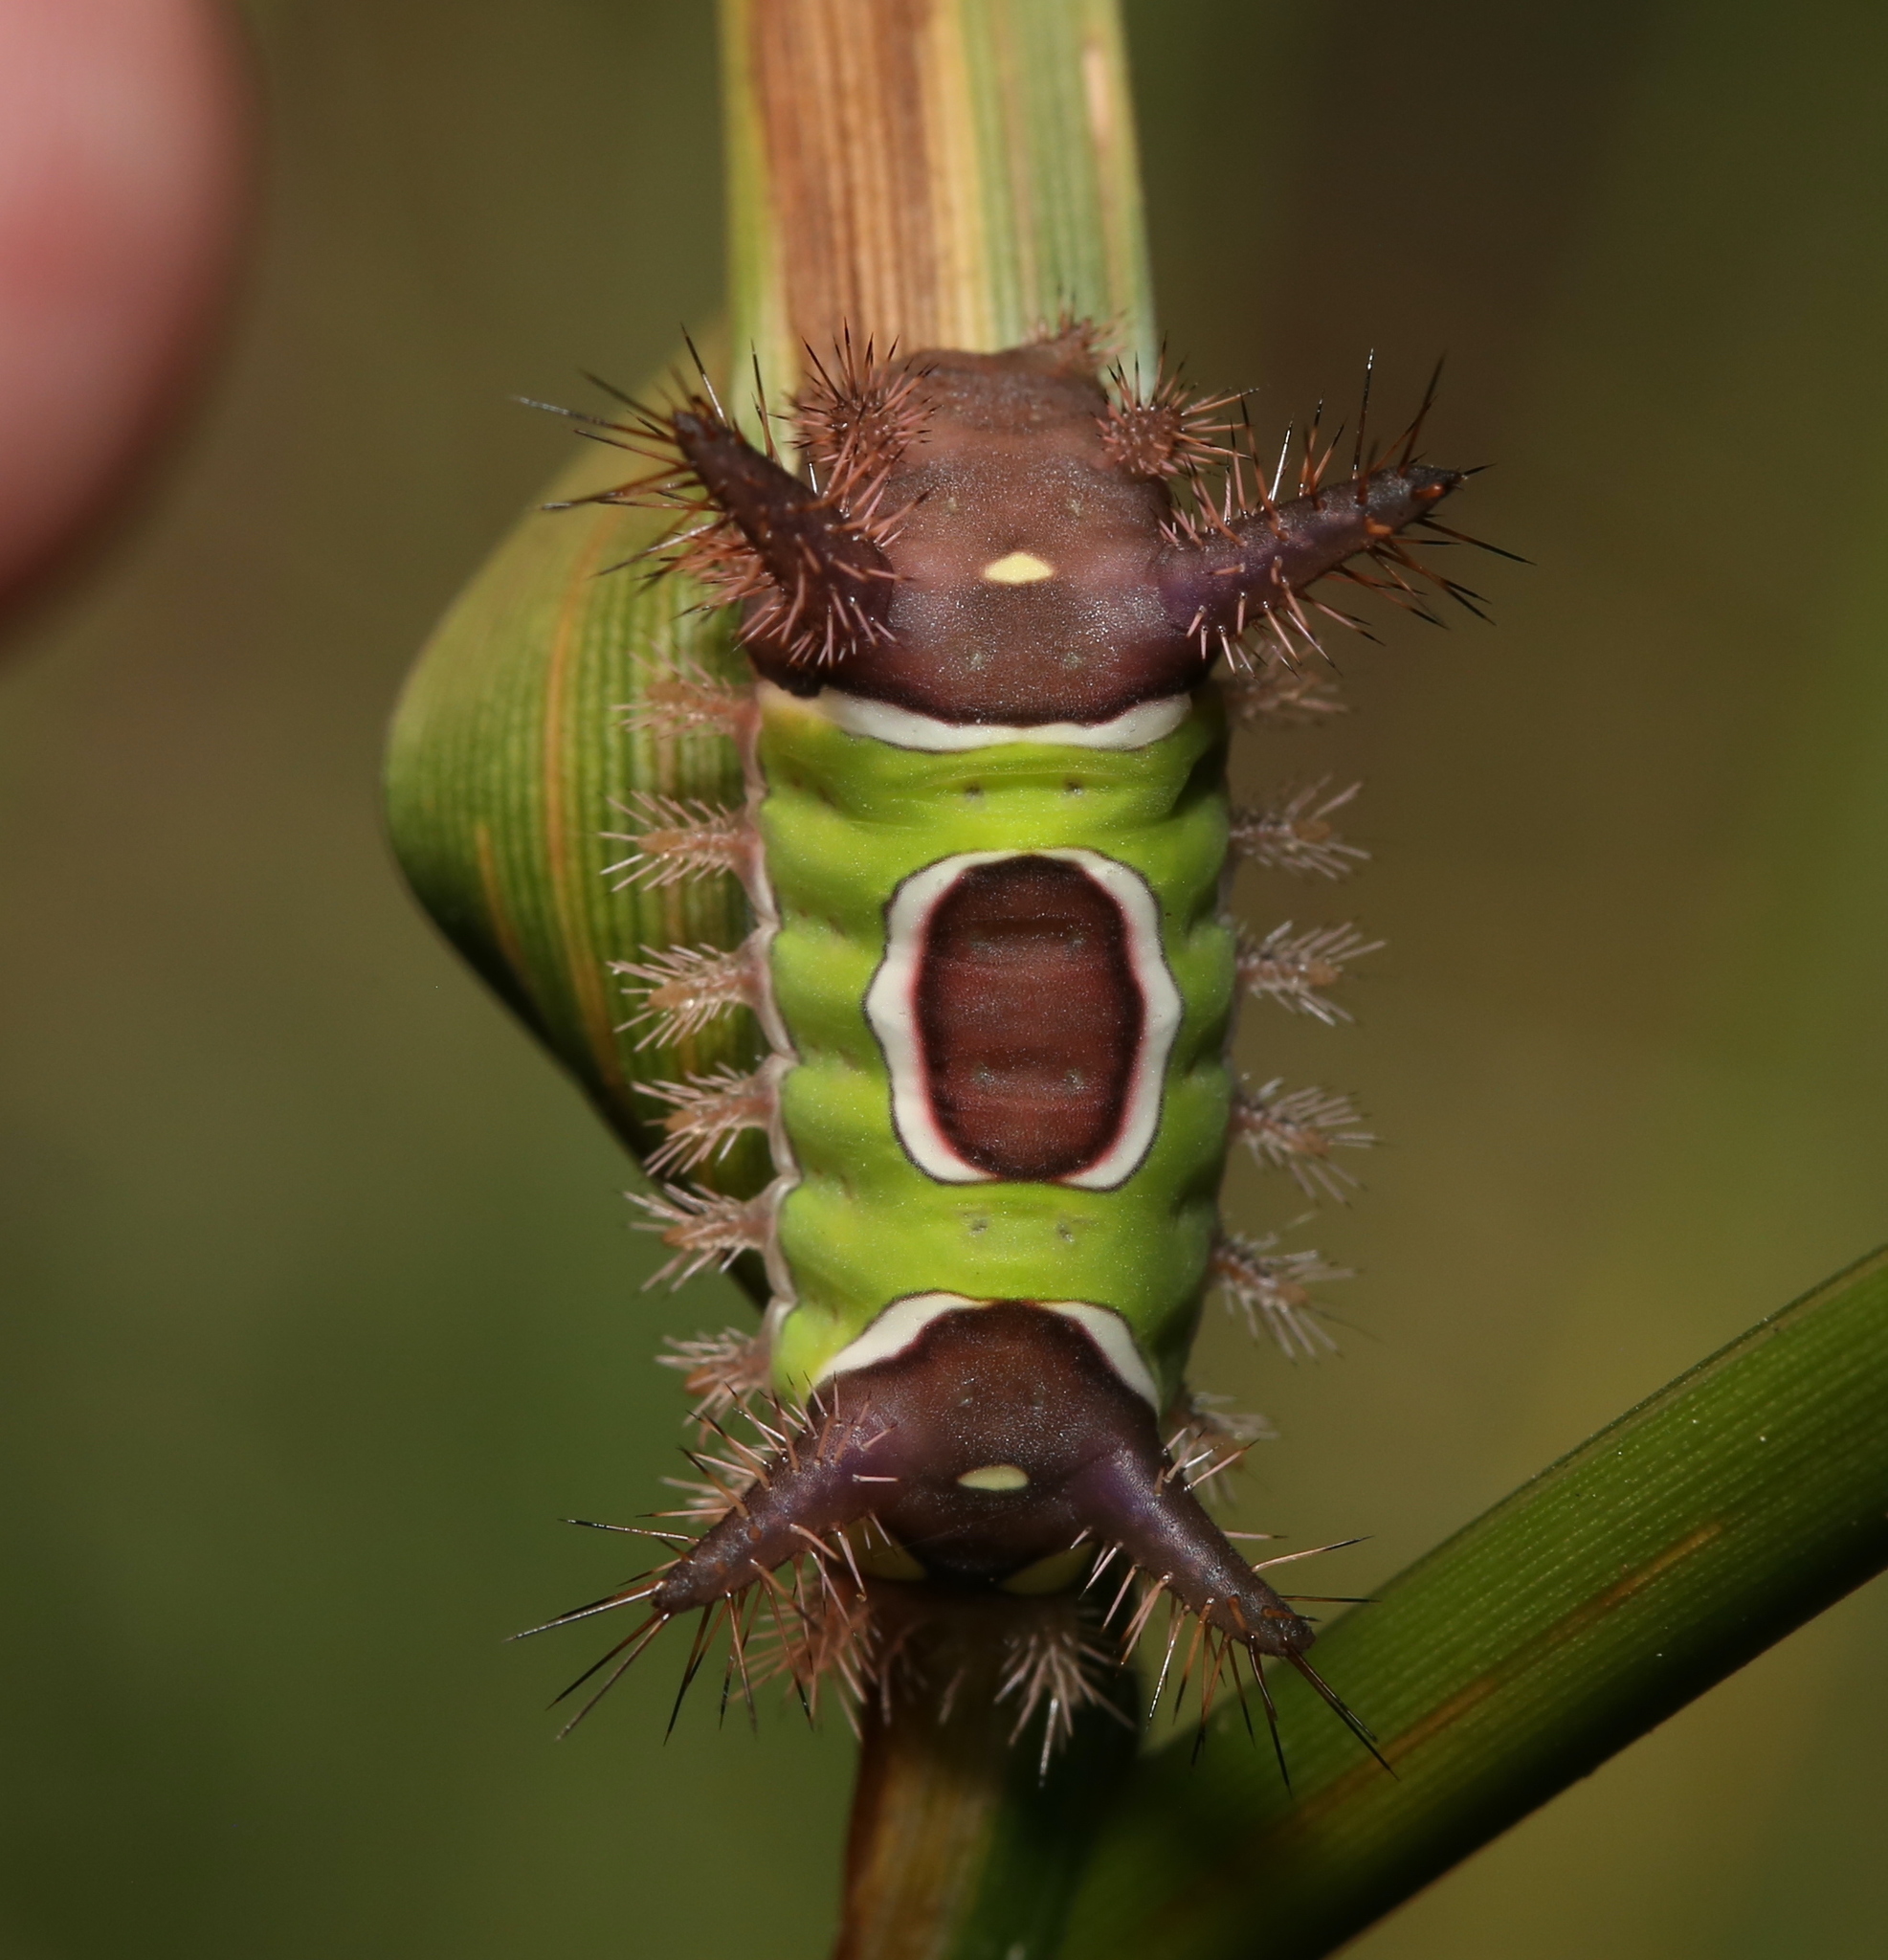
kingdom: Animalia
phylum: Arthropoda
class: Insecta
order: Lepidoptera
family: Limacodidae
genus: Acharia
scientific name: Acharia stimulea
